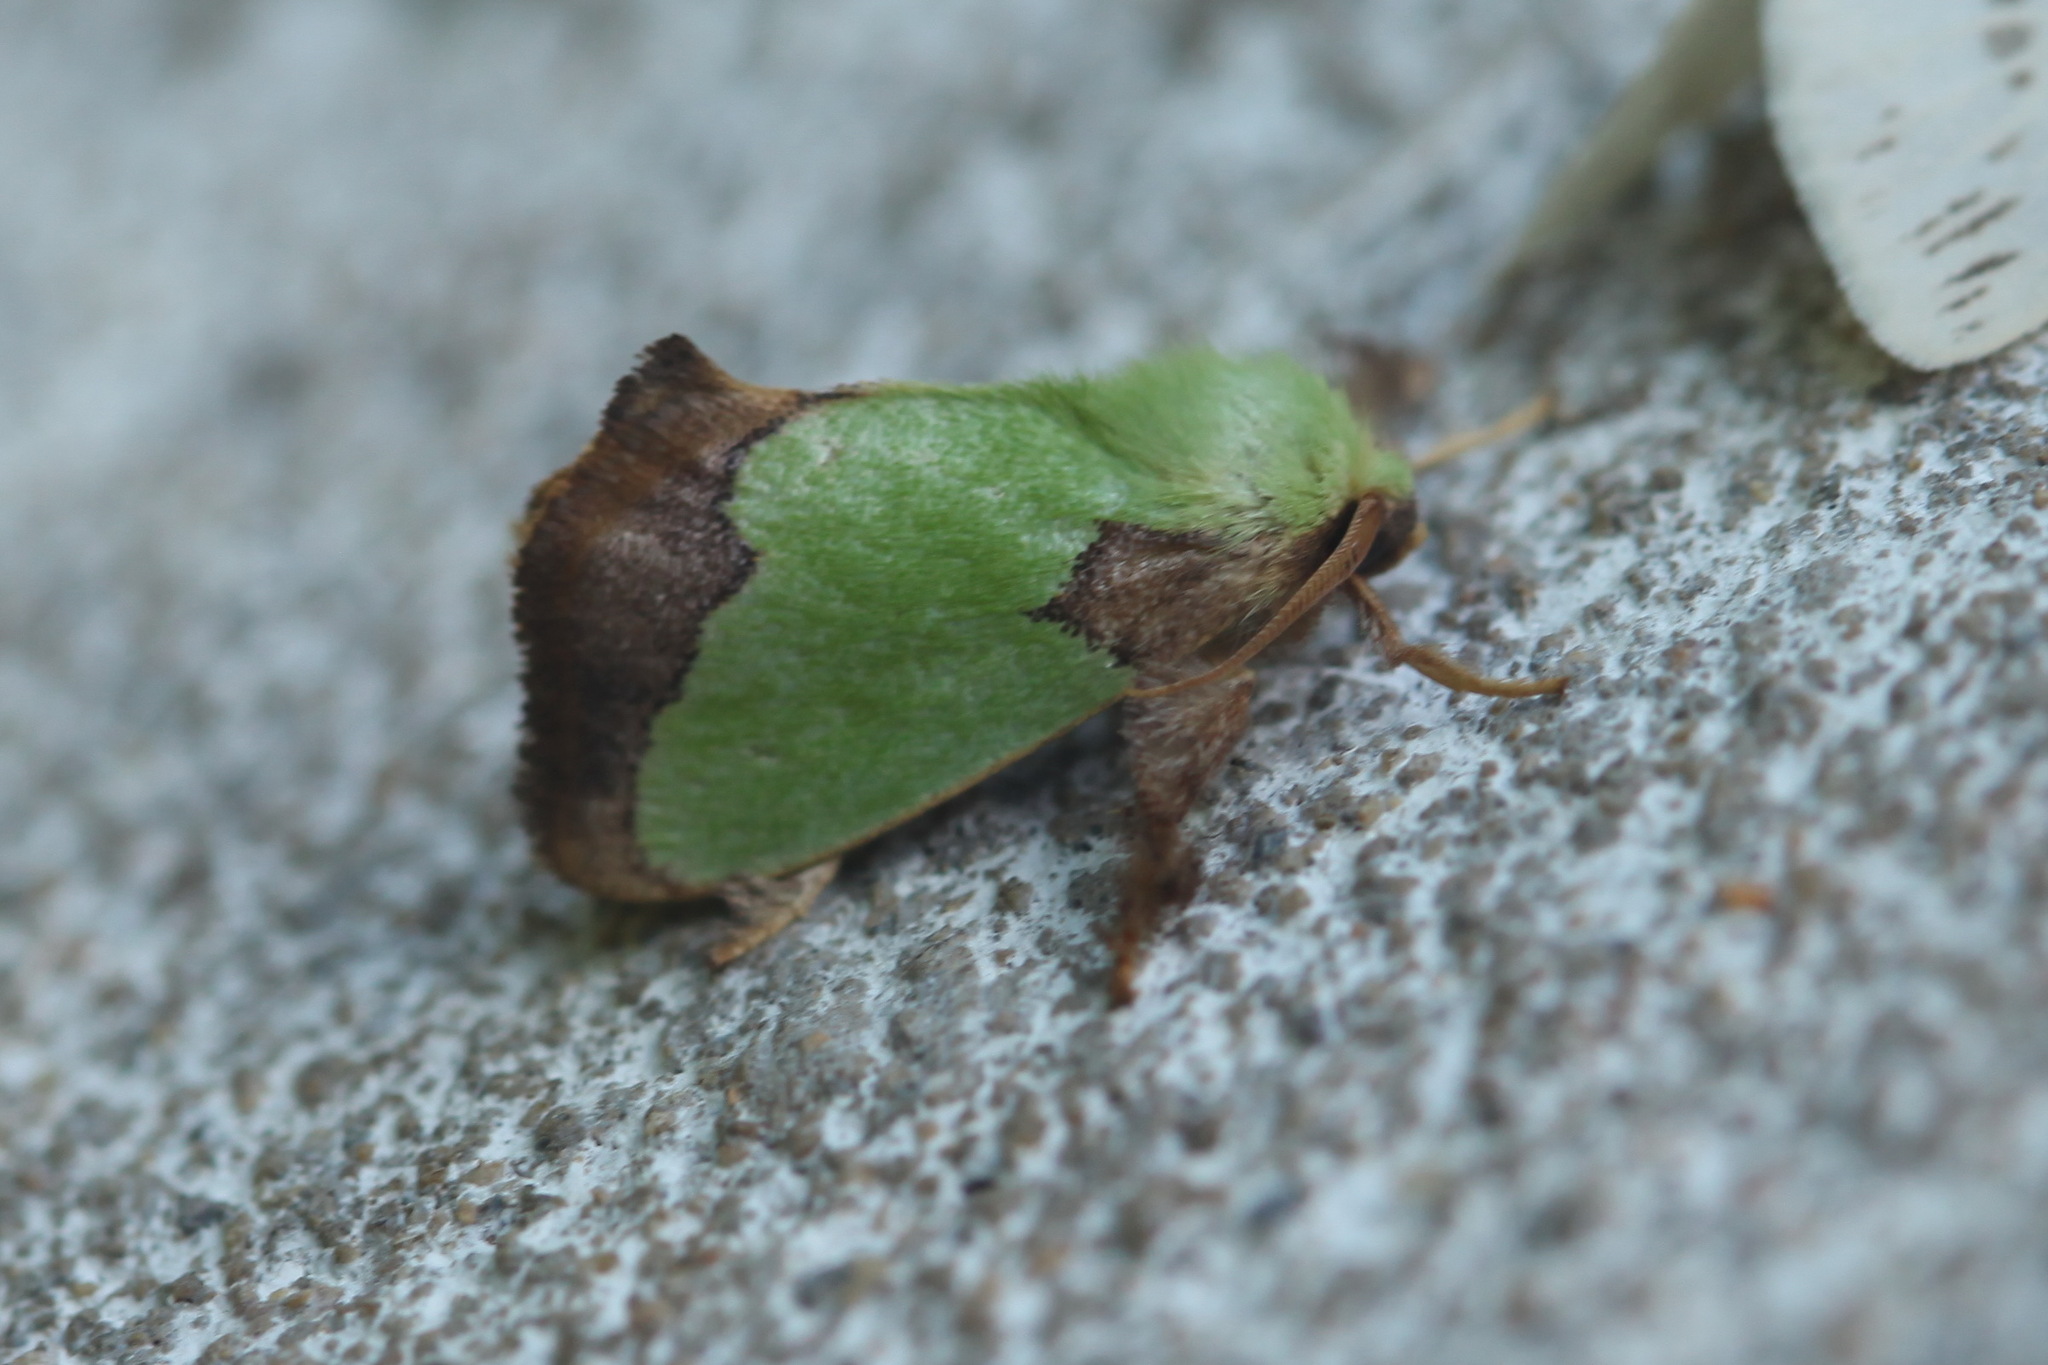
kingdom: Animalia
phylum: Arthropoda
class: Insecta
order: Lepidoptera
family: Limacodidae
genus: Parasa
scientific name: Parasa hilarula
